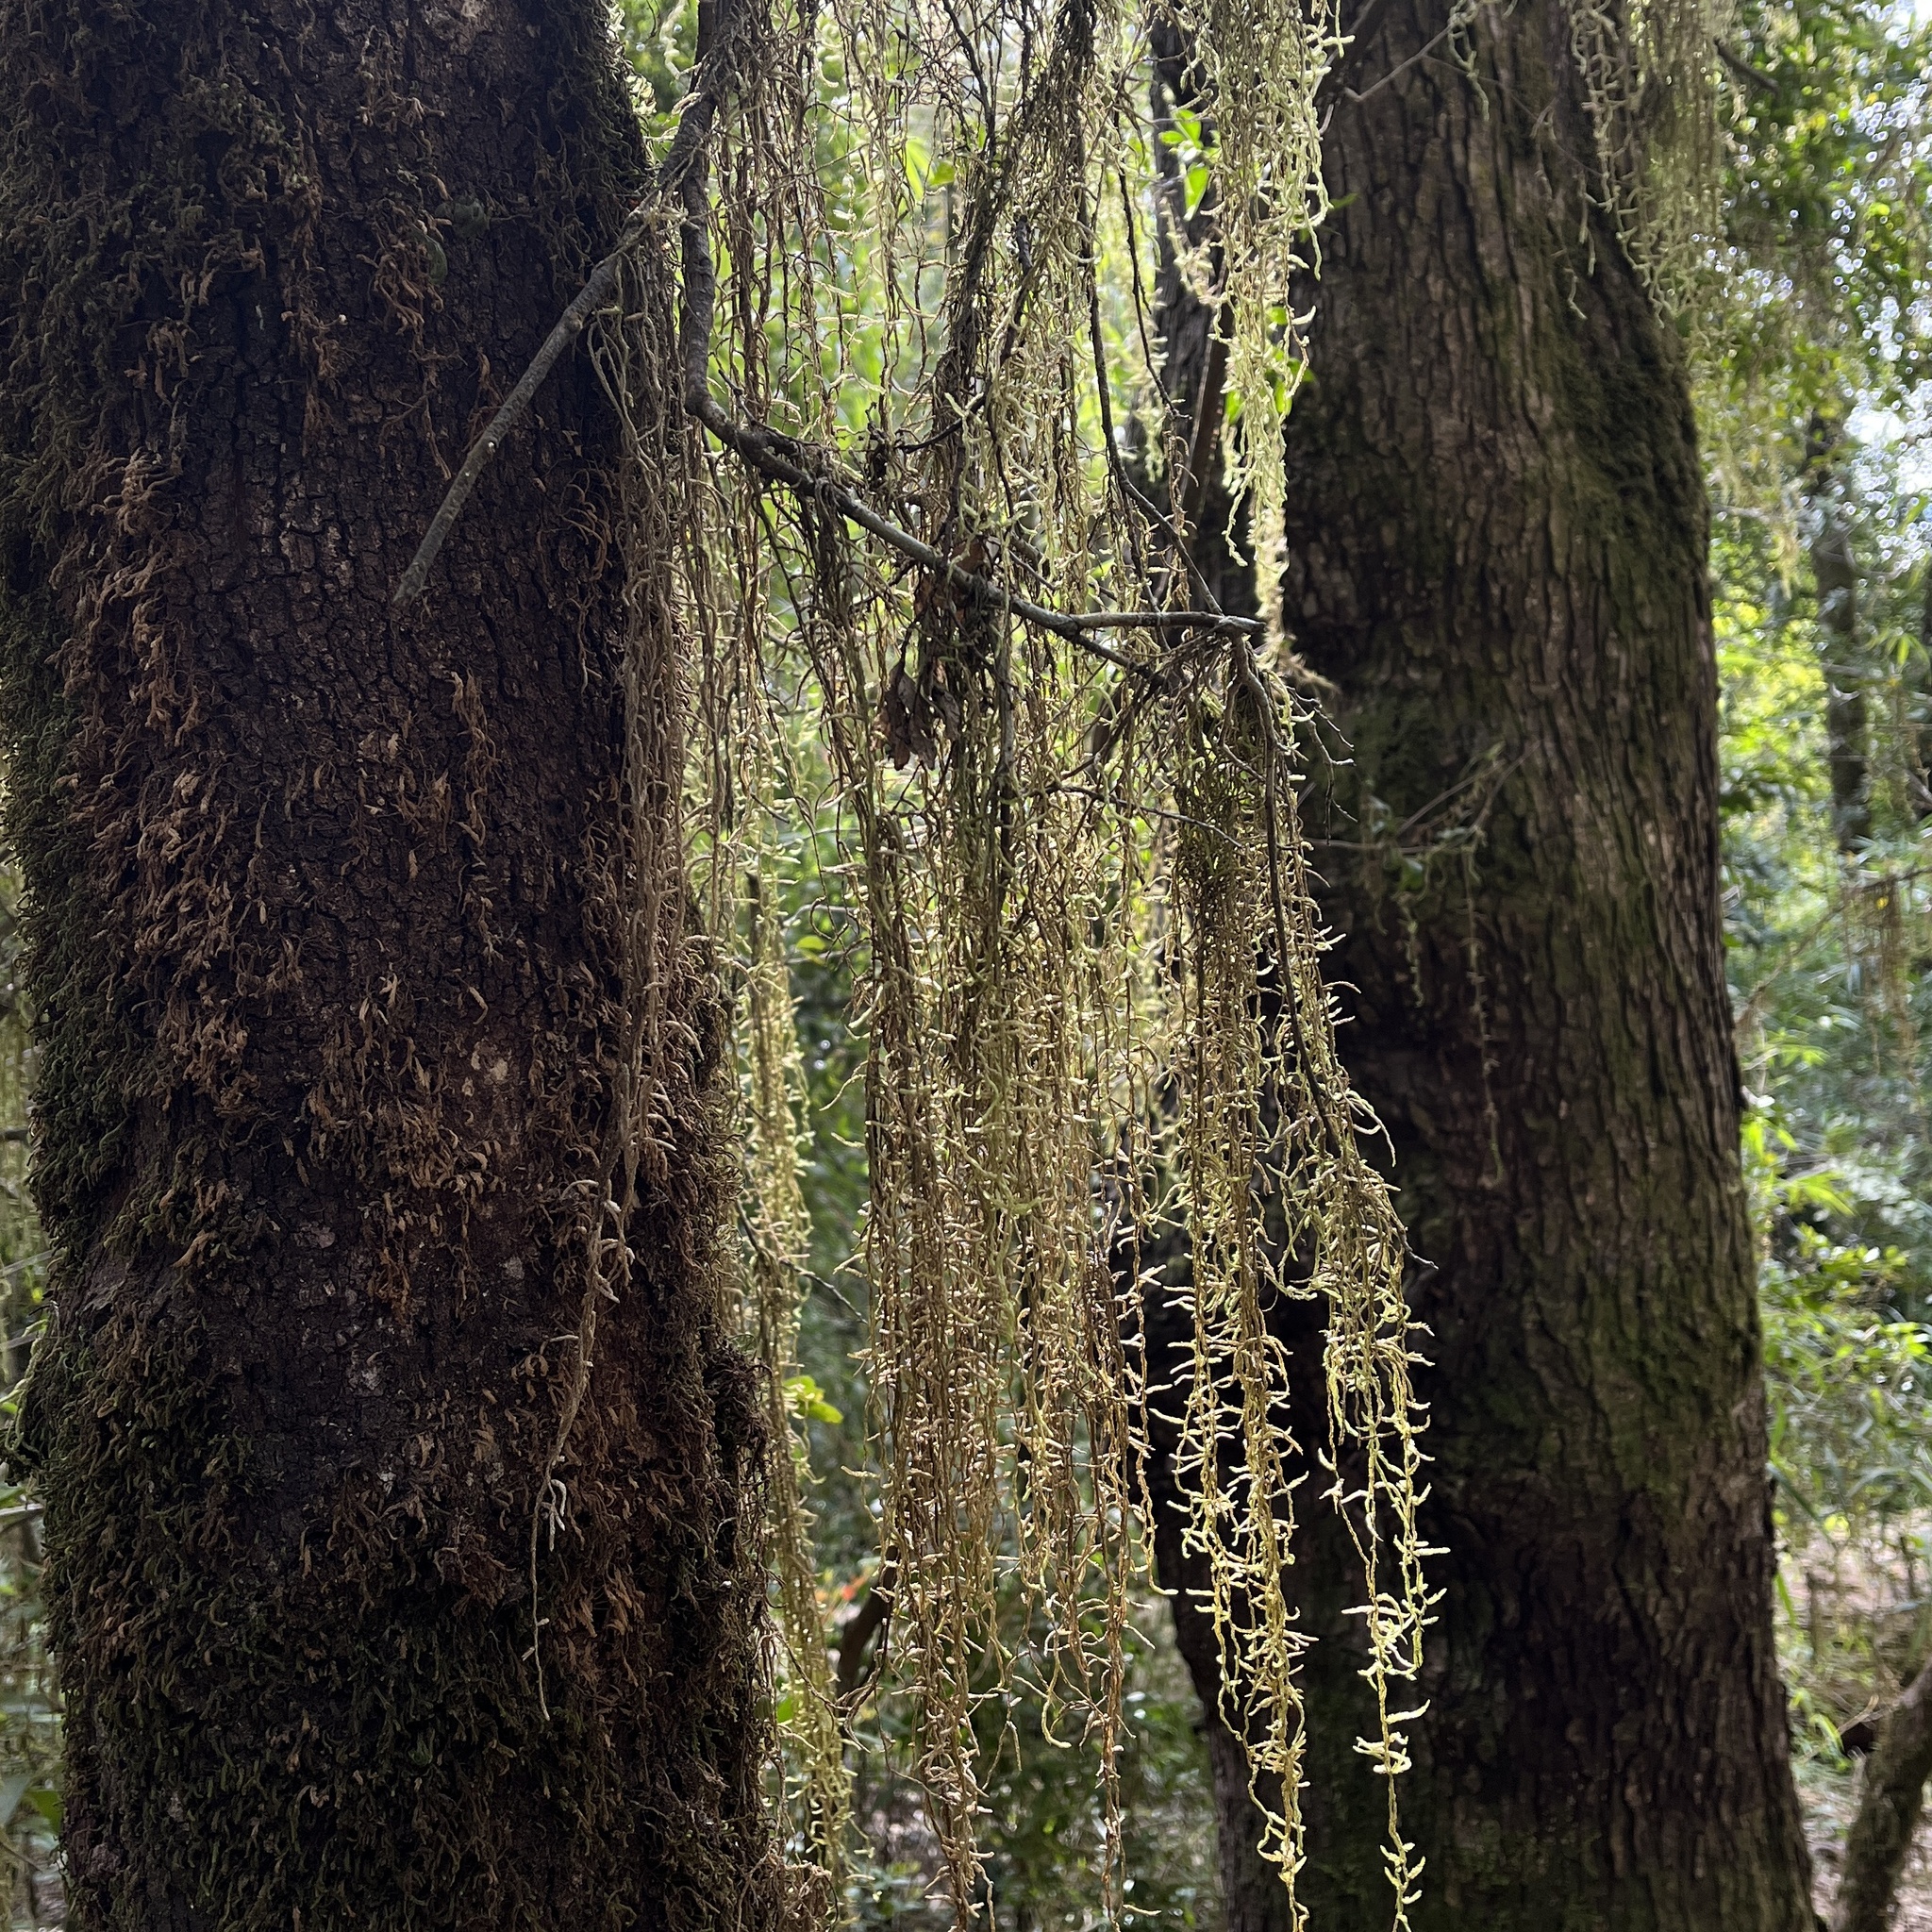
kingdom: Plantae
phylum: Bryophyta
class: Bryopsida
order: Hypnales
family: Lembophyllaceae
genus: Weymouthia
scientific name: Weymouthia mollis
